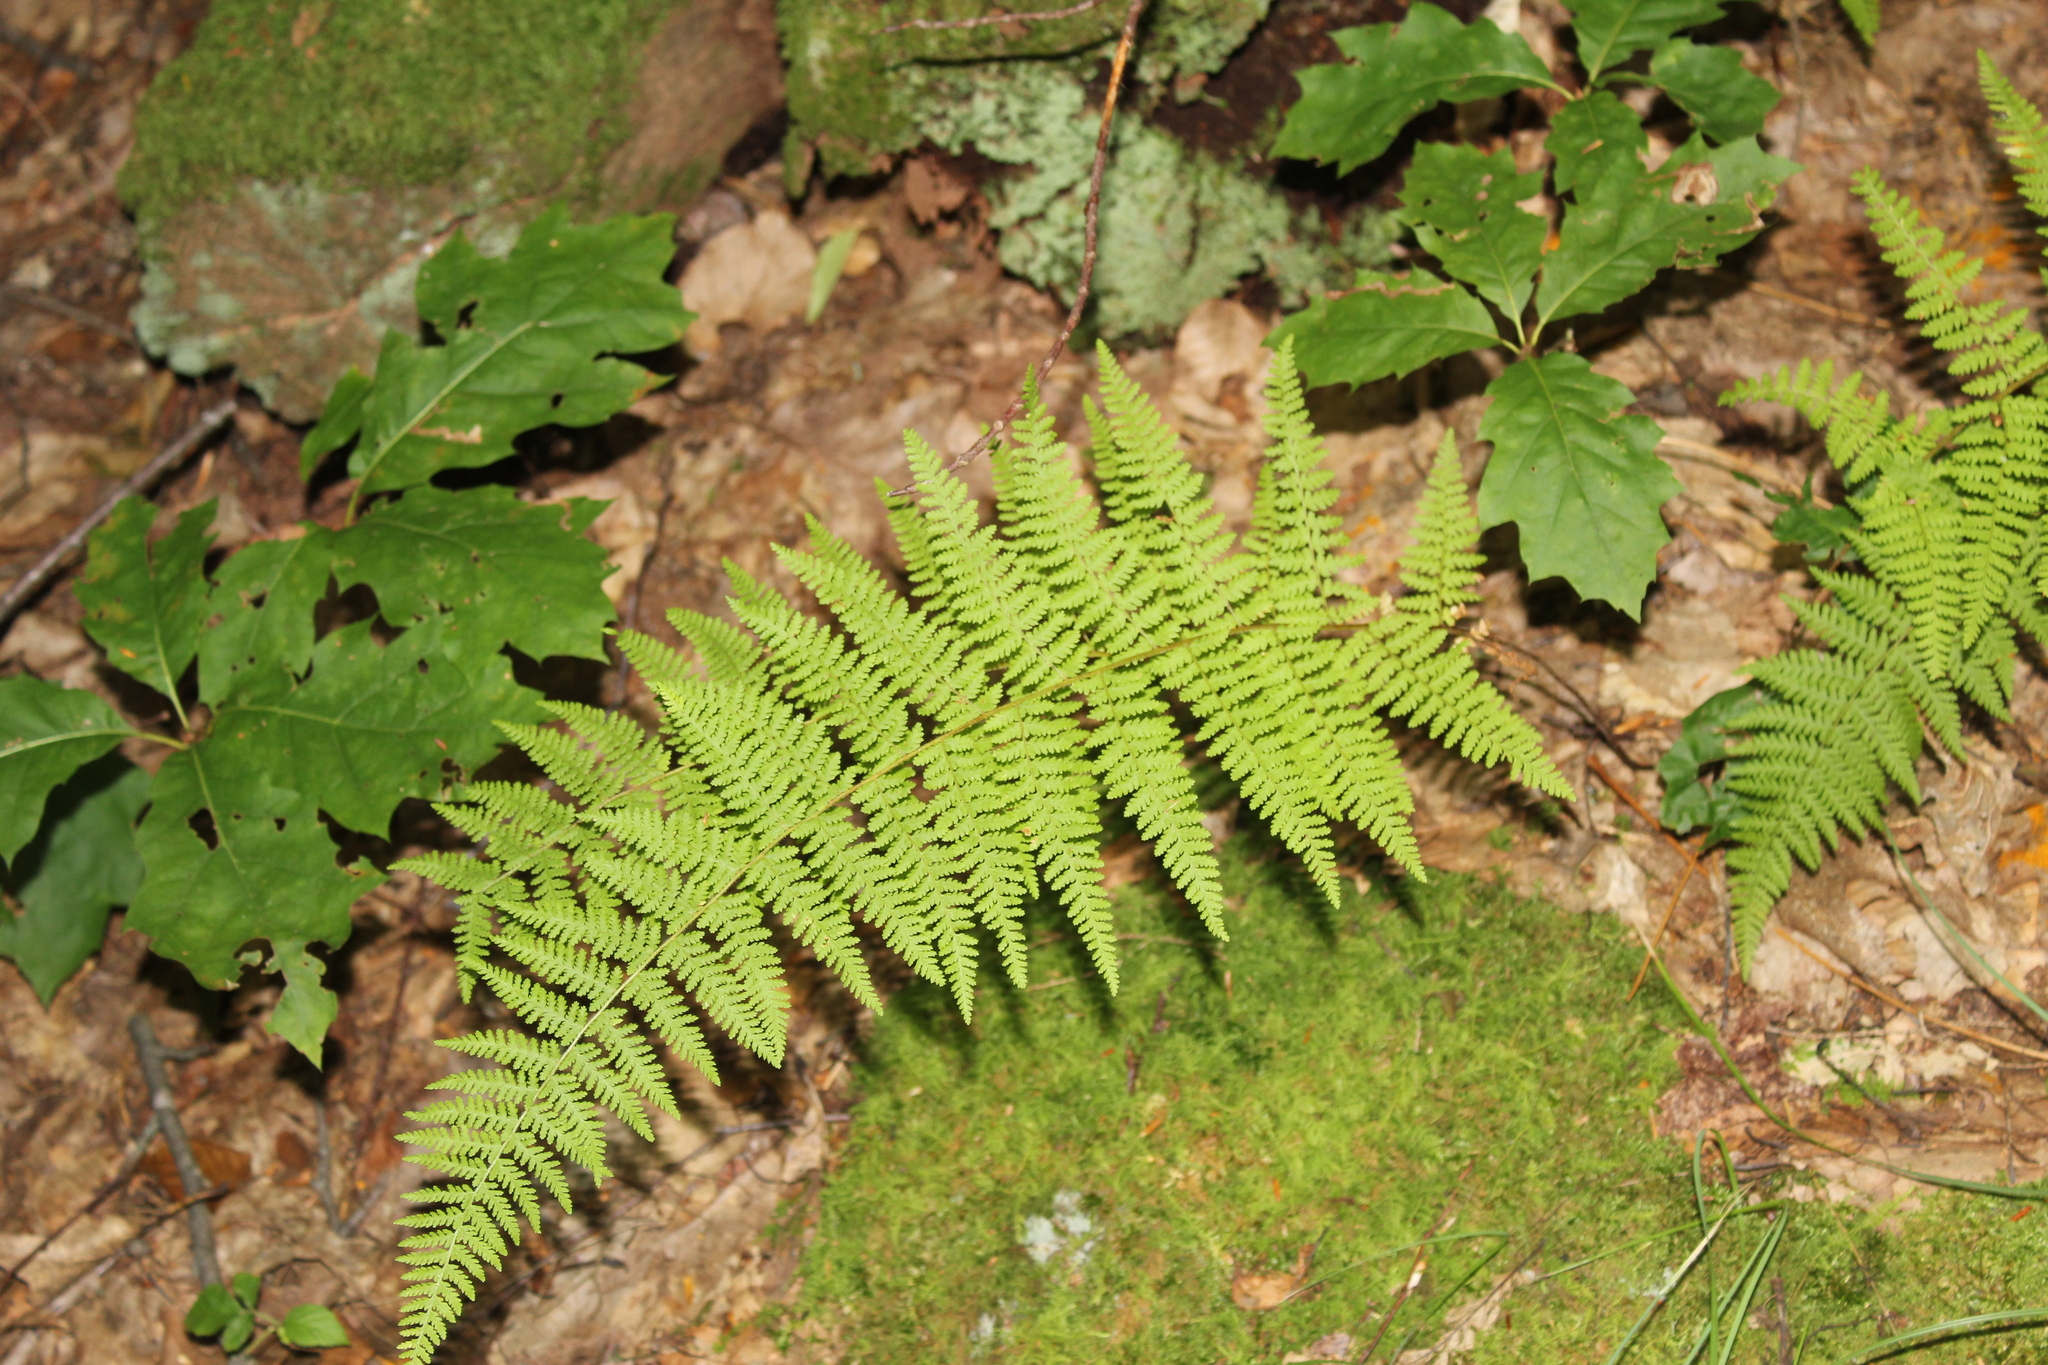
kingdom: Plantae
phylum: Tracheophyta
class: Polypodiopsida
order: Polypodiales
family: Dennstaedtiaceae
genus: Sitobolium
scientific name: Sitobolium punctilobum
